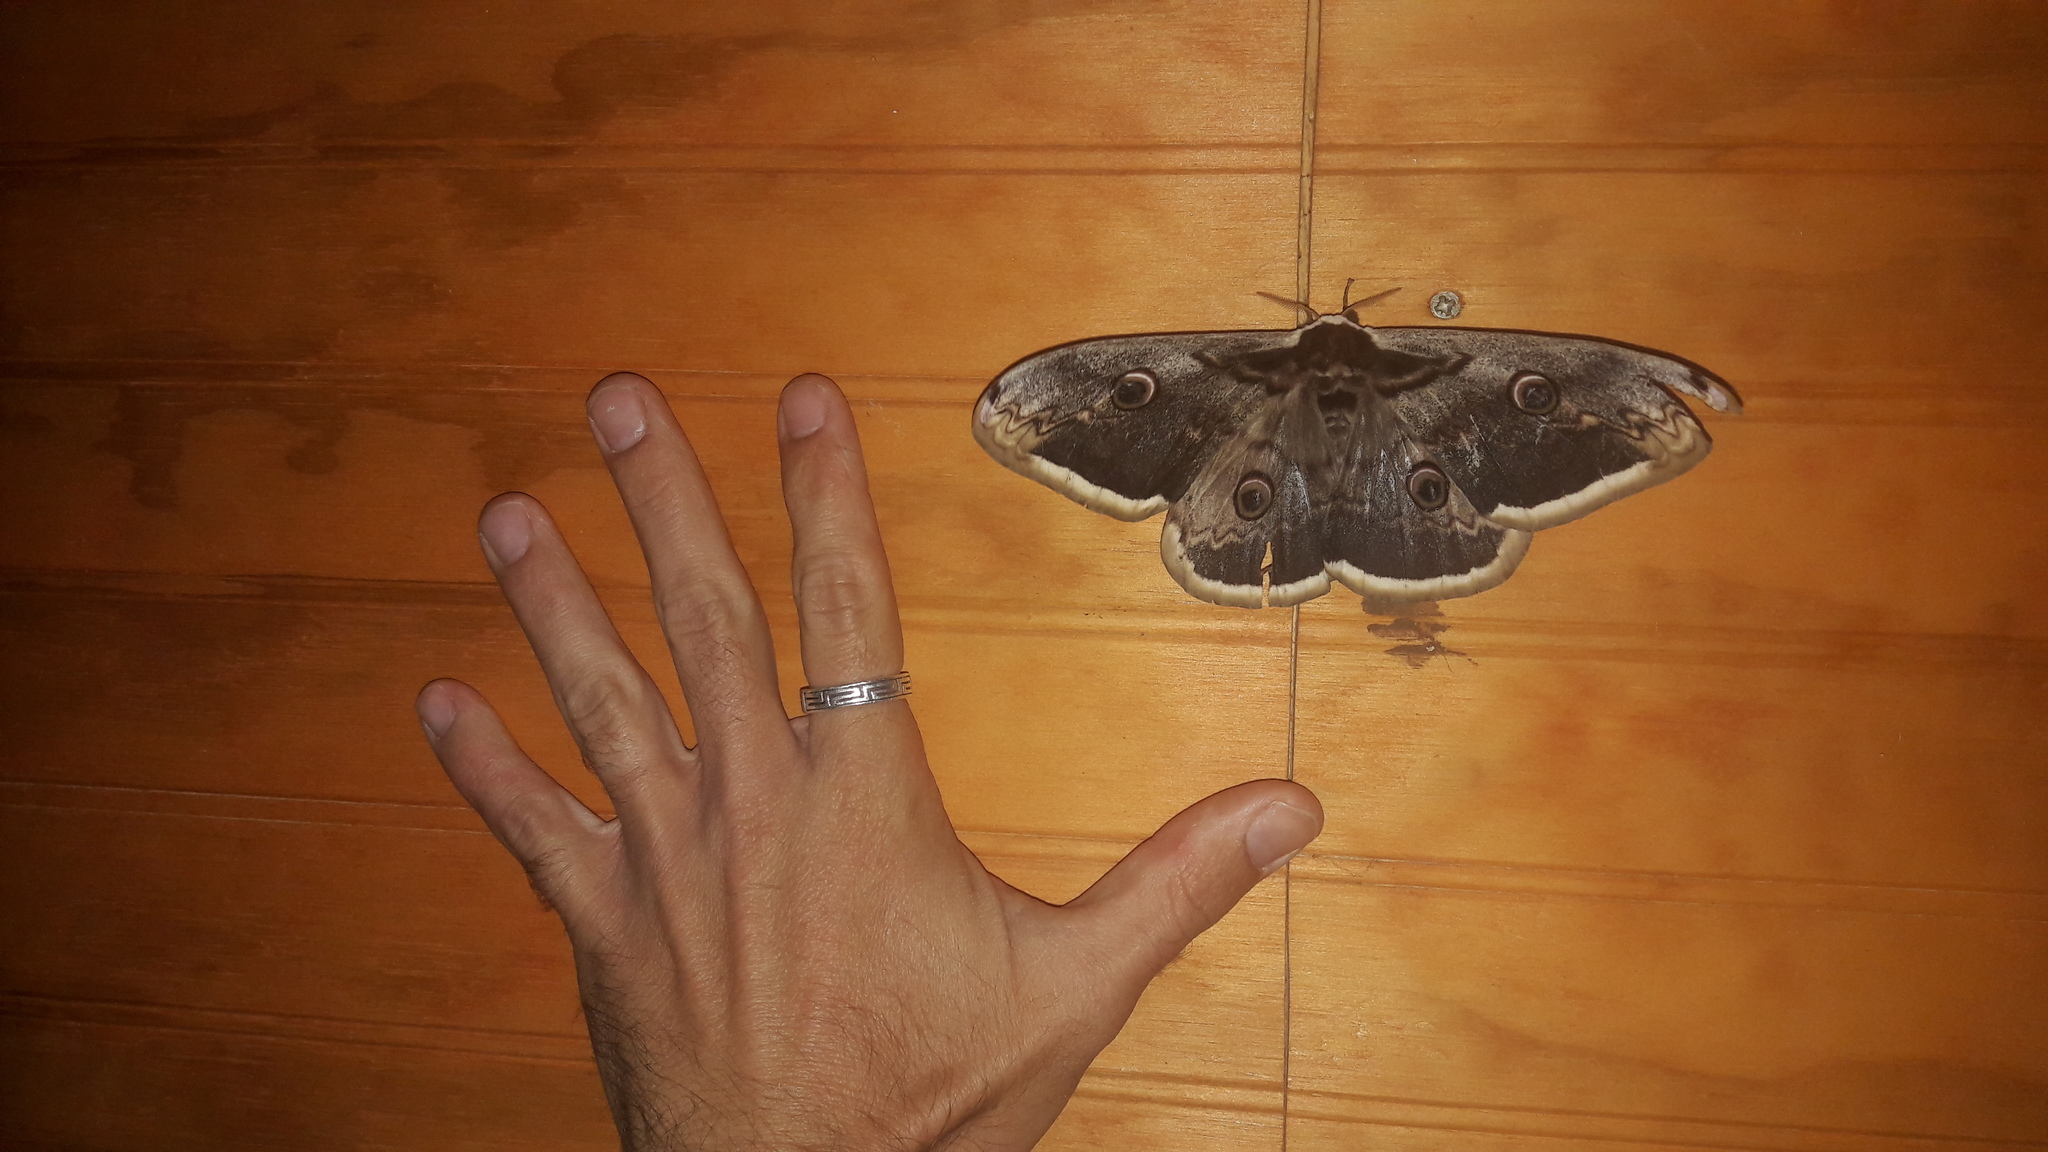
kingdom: Animalia
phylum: Arthropoda
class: Insecta
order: Lepidoptera
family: Saturniidae
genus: Saturnia
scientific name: Saturnia pyri
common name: Great peacock moth
